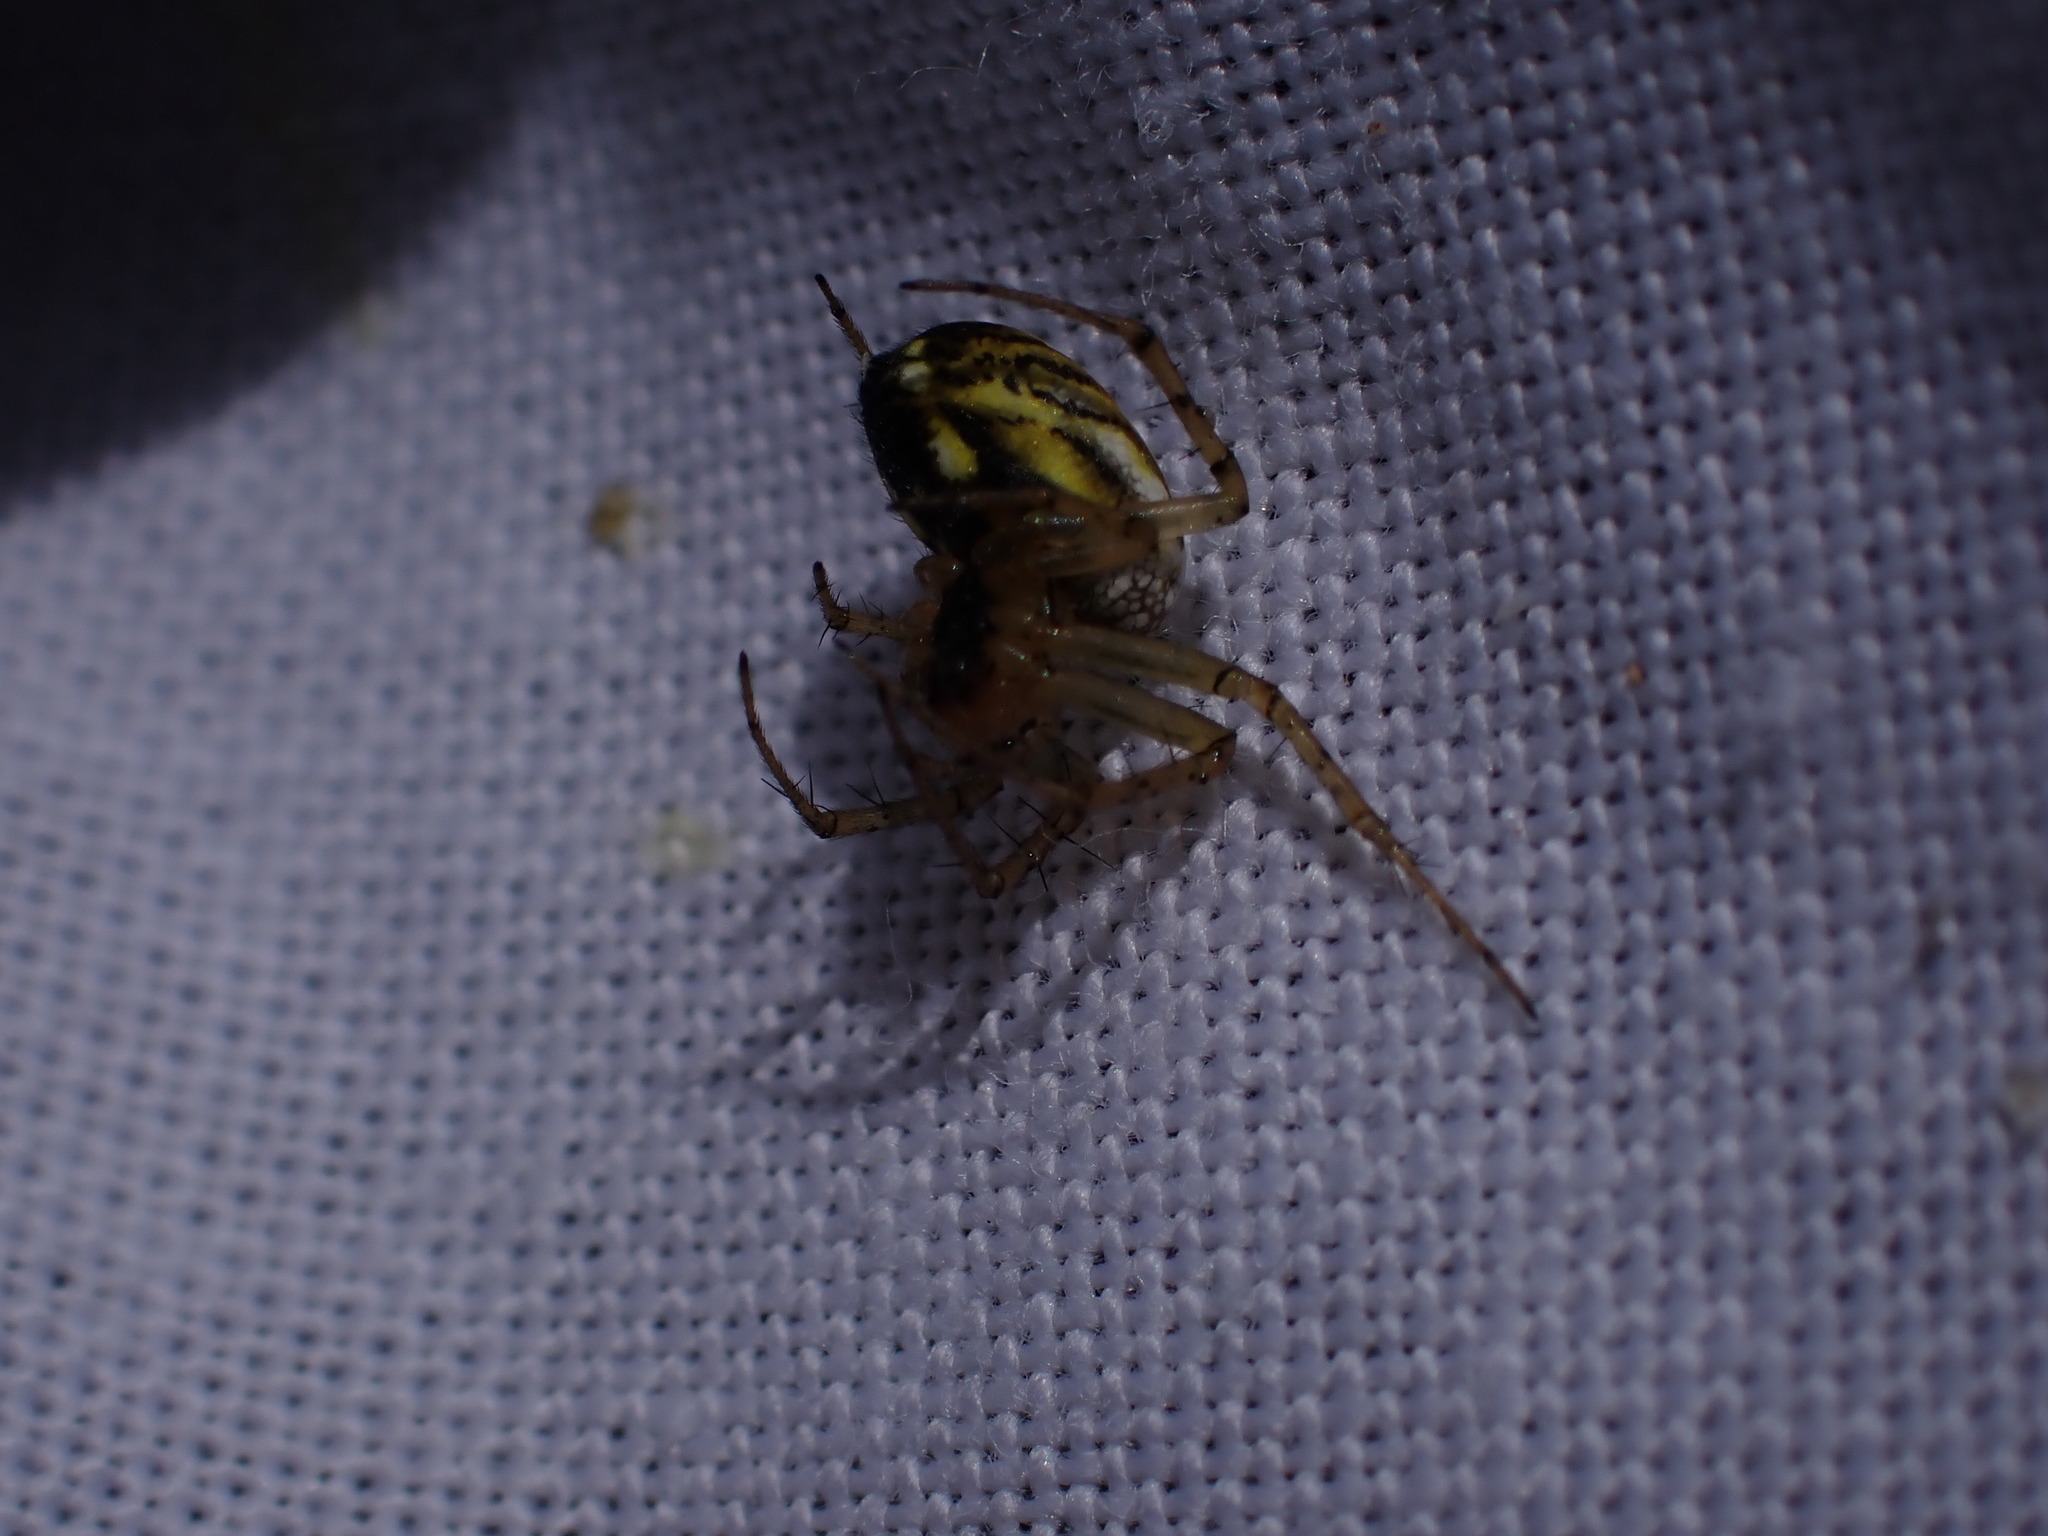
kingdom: Animalia
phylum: Arthropoda
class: Arachnida
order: Araneae
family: Araneidae
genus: Mangora
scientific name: Mangora acalypha
